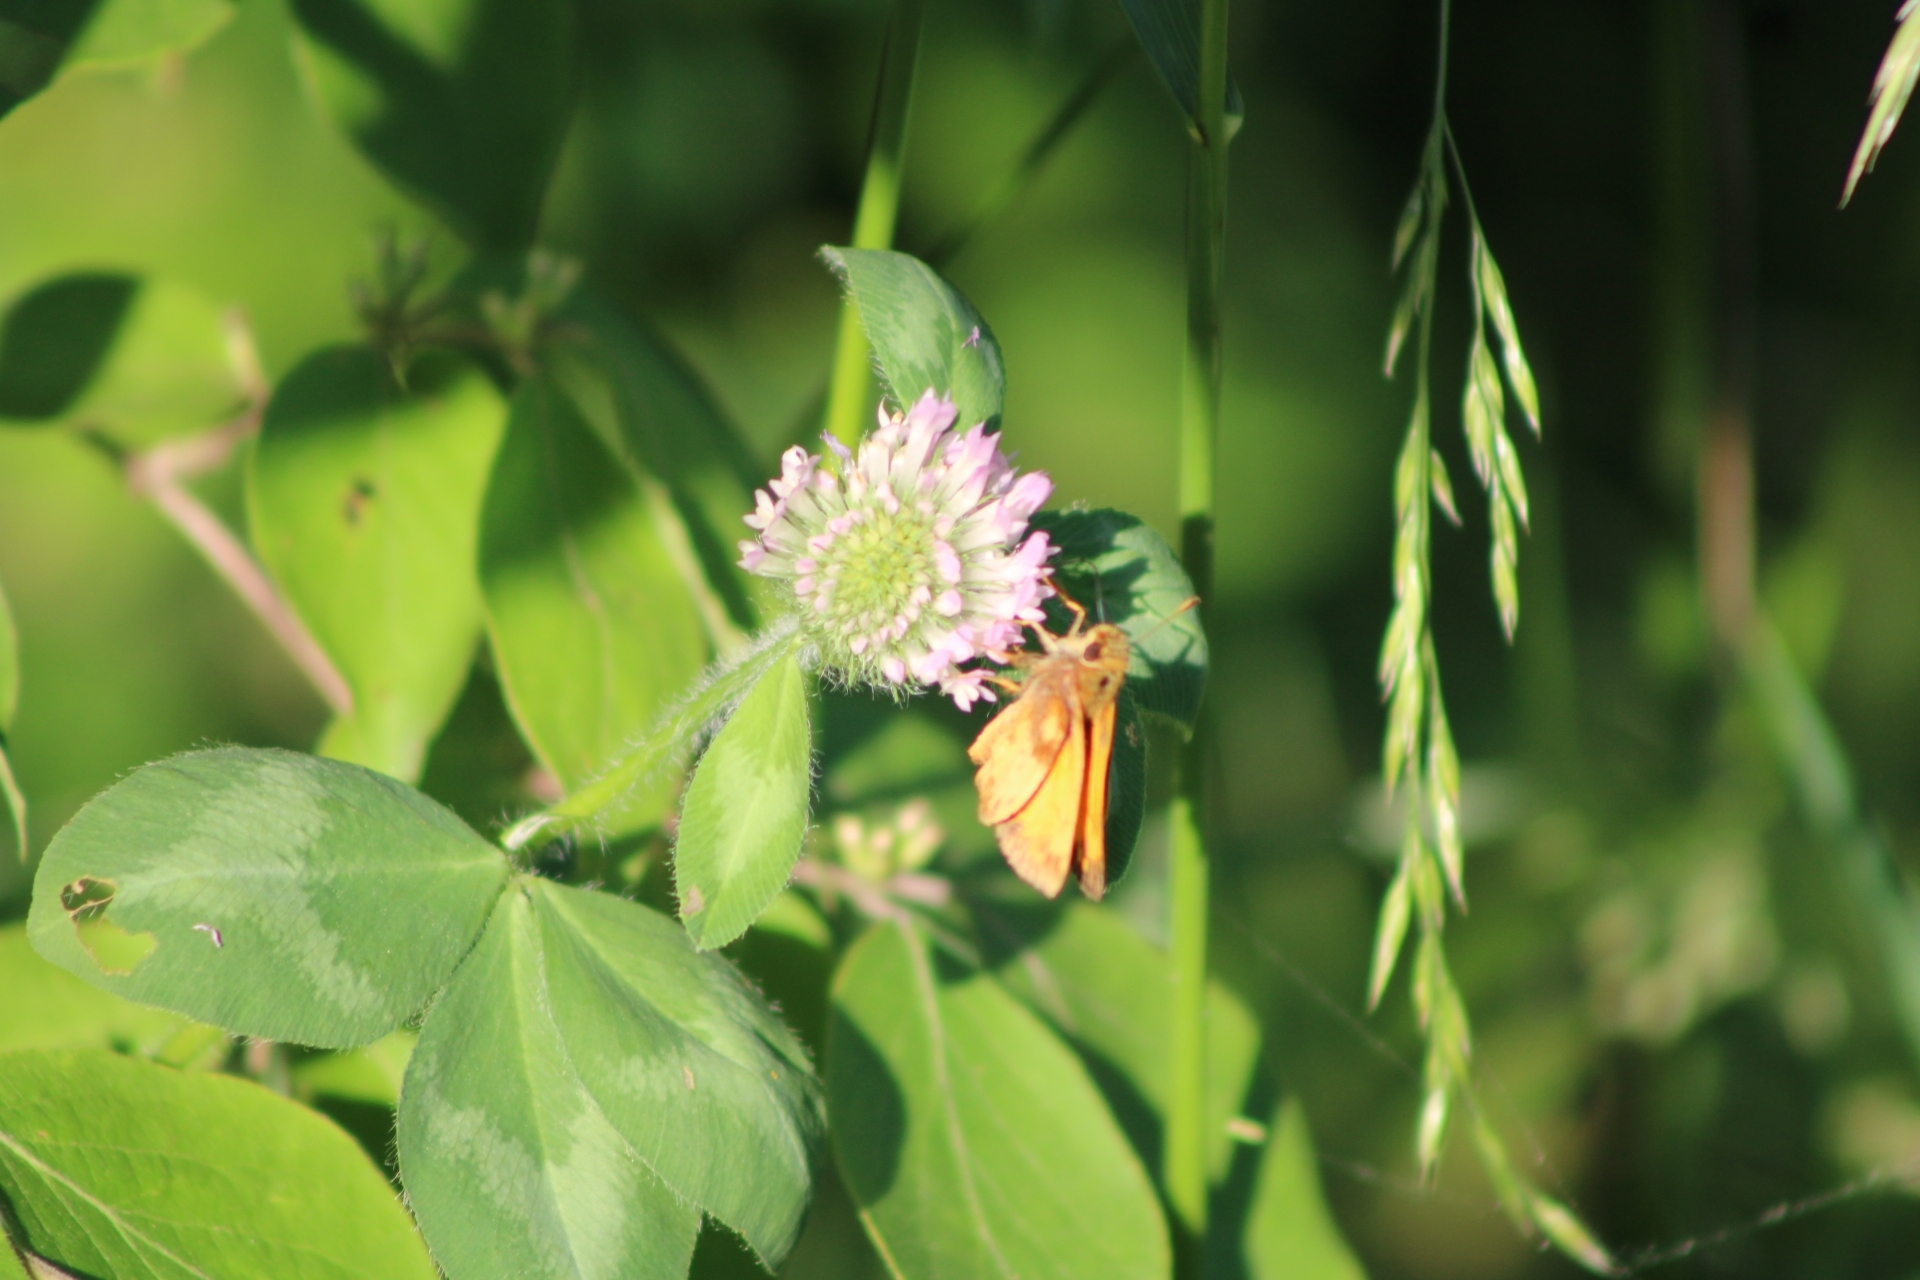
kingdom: Animalia
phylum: Arthropoda
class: Insecta
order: Lepidoptera
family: Hesperiidae
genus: Lon
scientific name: Lon zabulon
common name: Zabulon skipper
